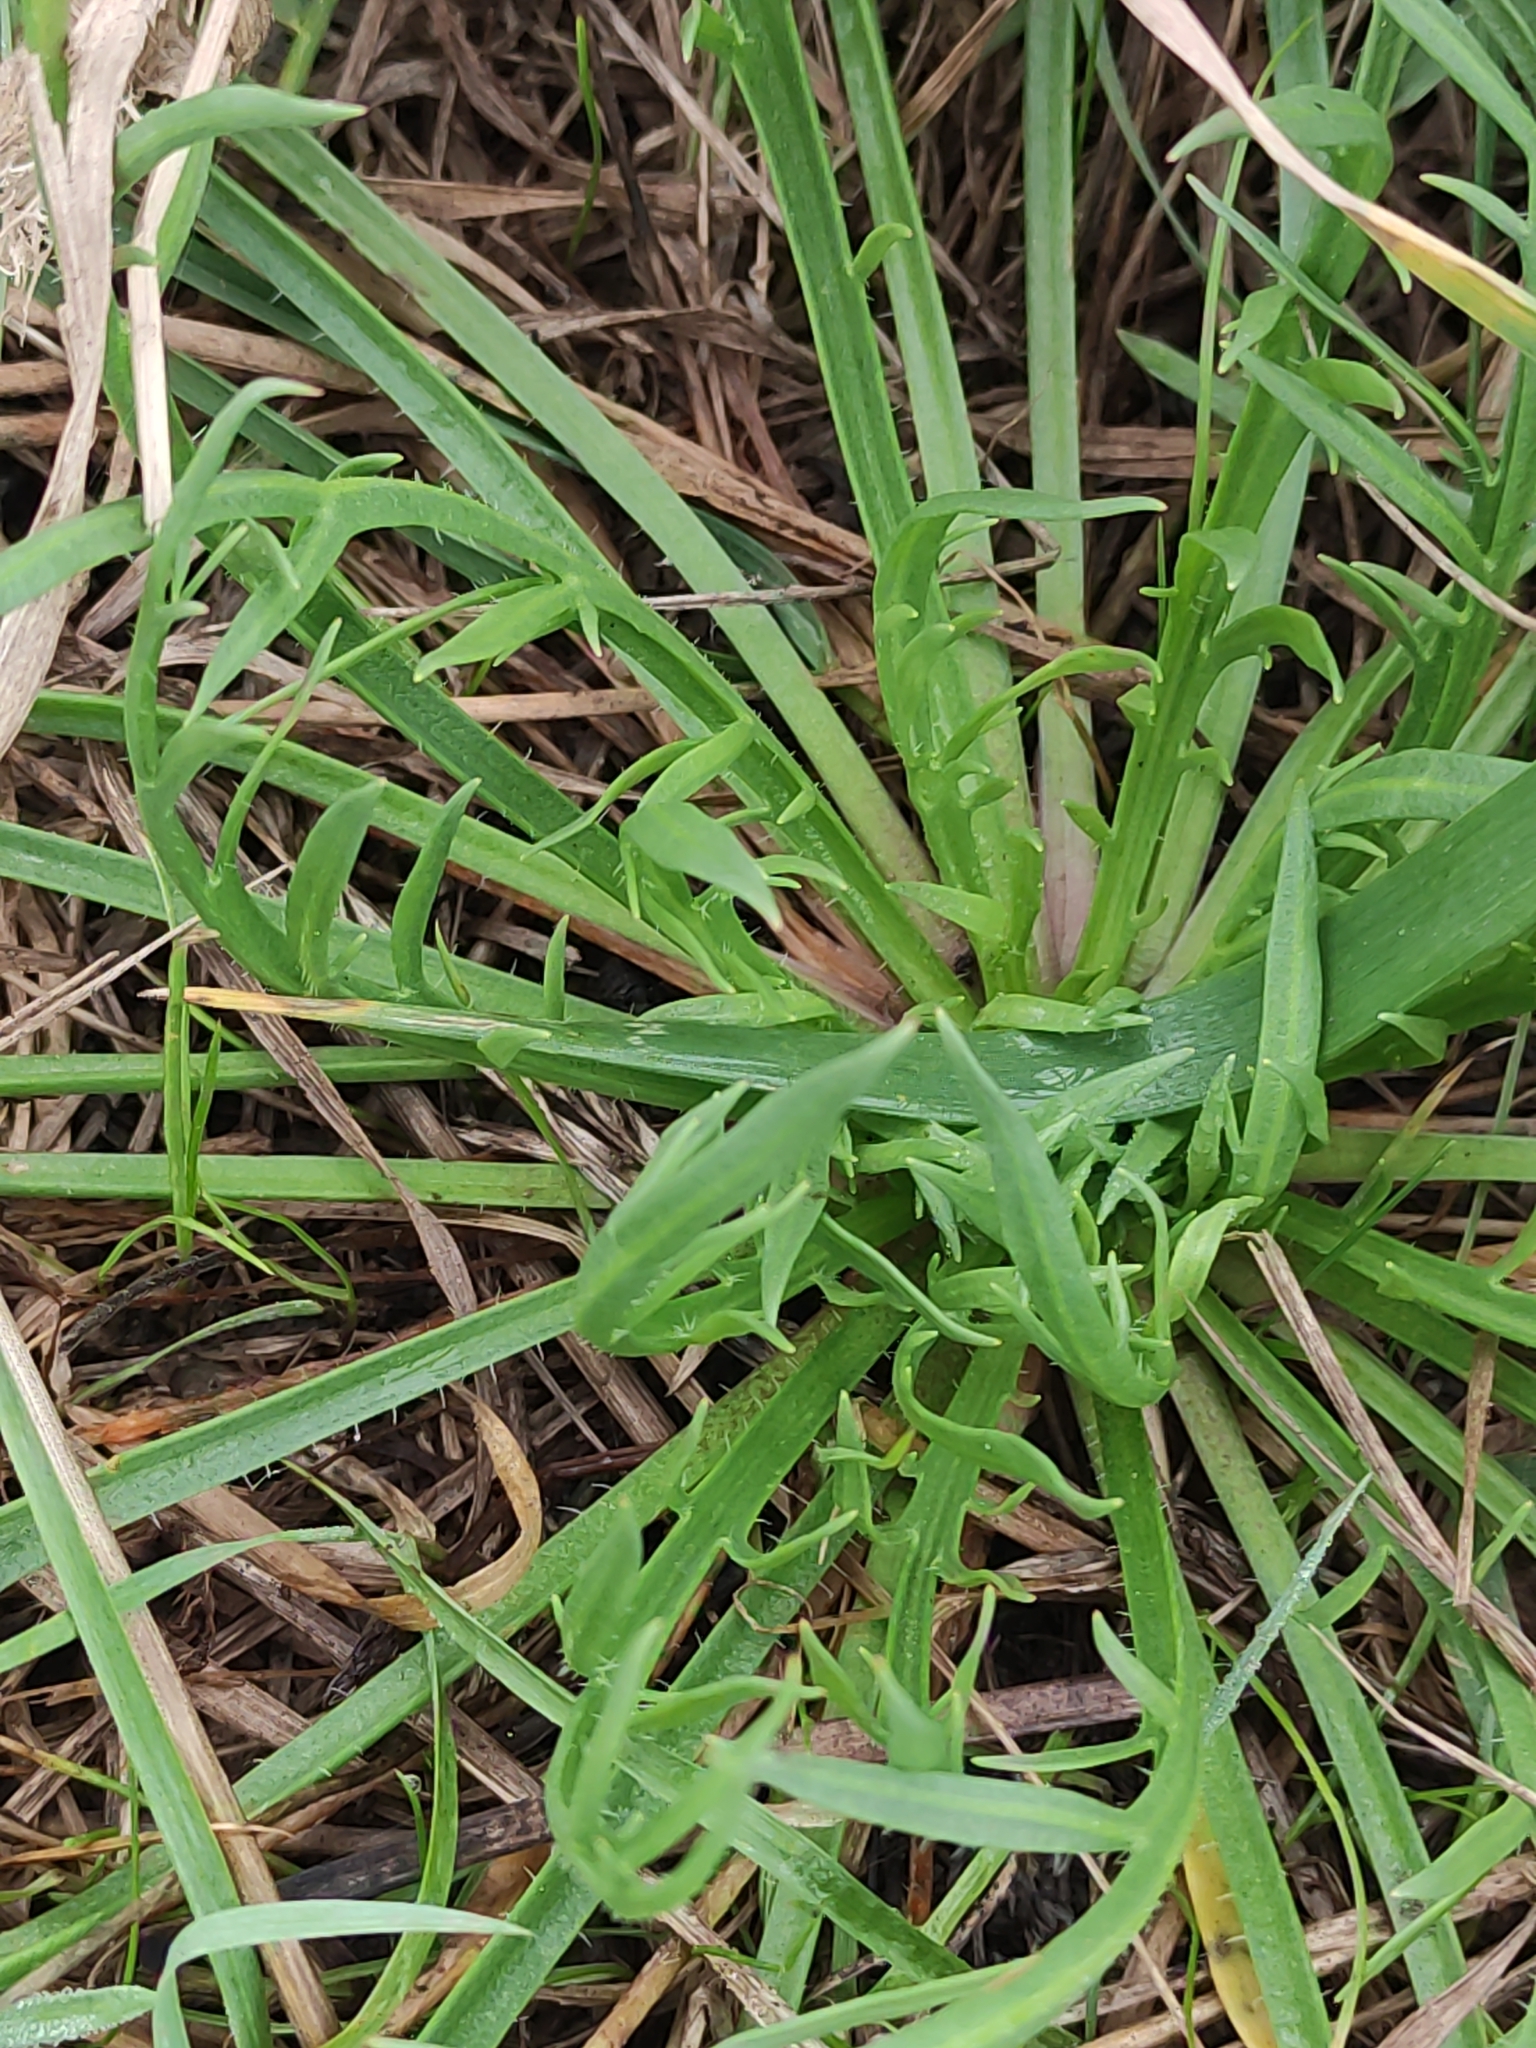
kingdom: Plantae
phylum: Tracheophyta
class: Magnoliopsida
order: Lamiales
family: Plantaginaceae
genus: Plantago
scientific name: Plantago coronopus
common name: Buck's-horn plantain
